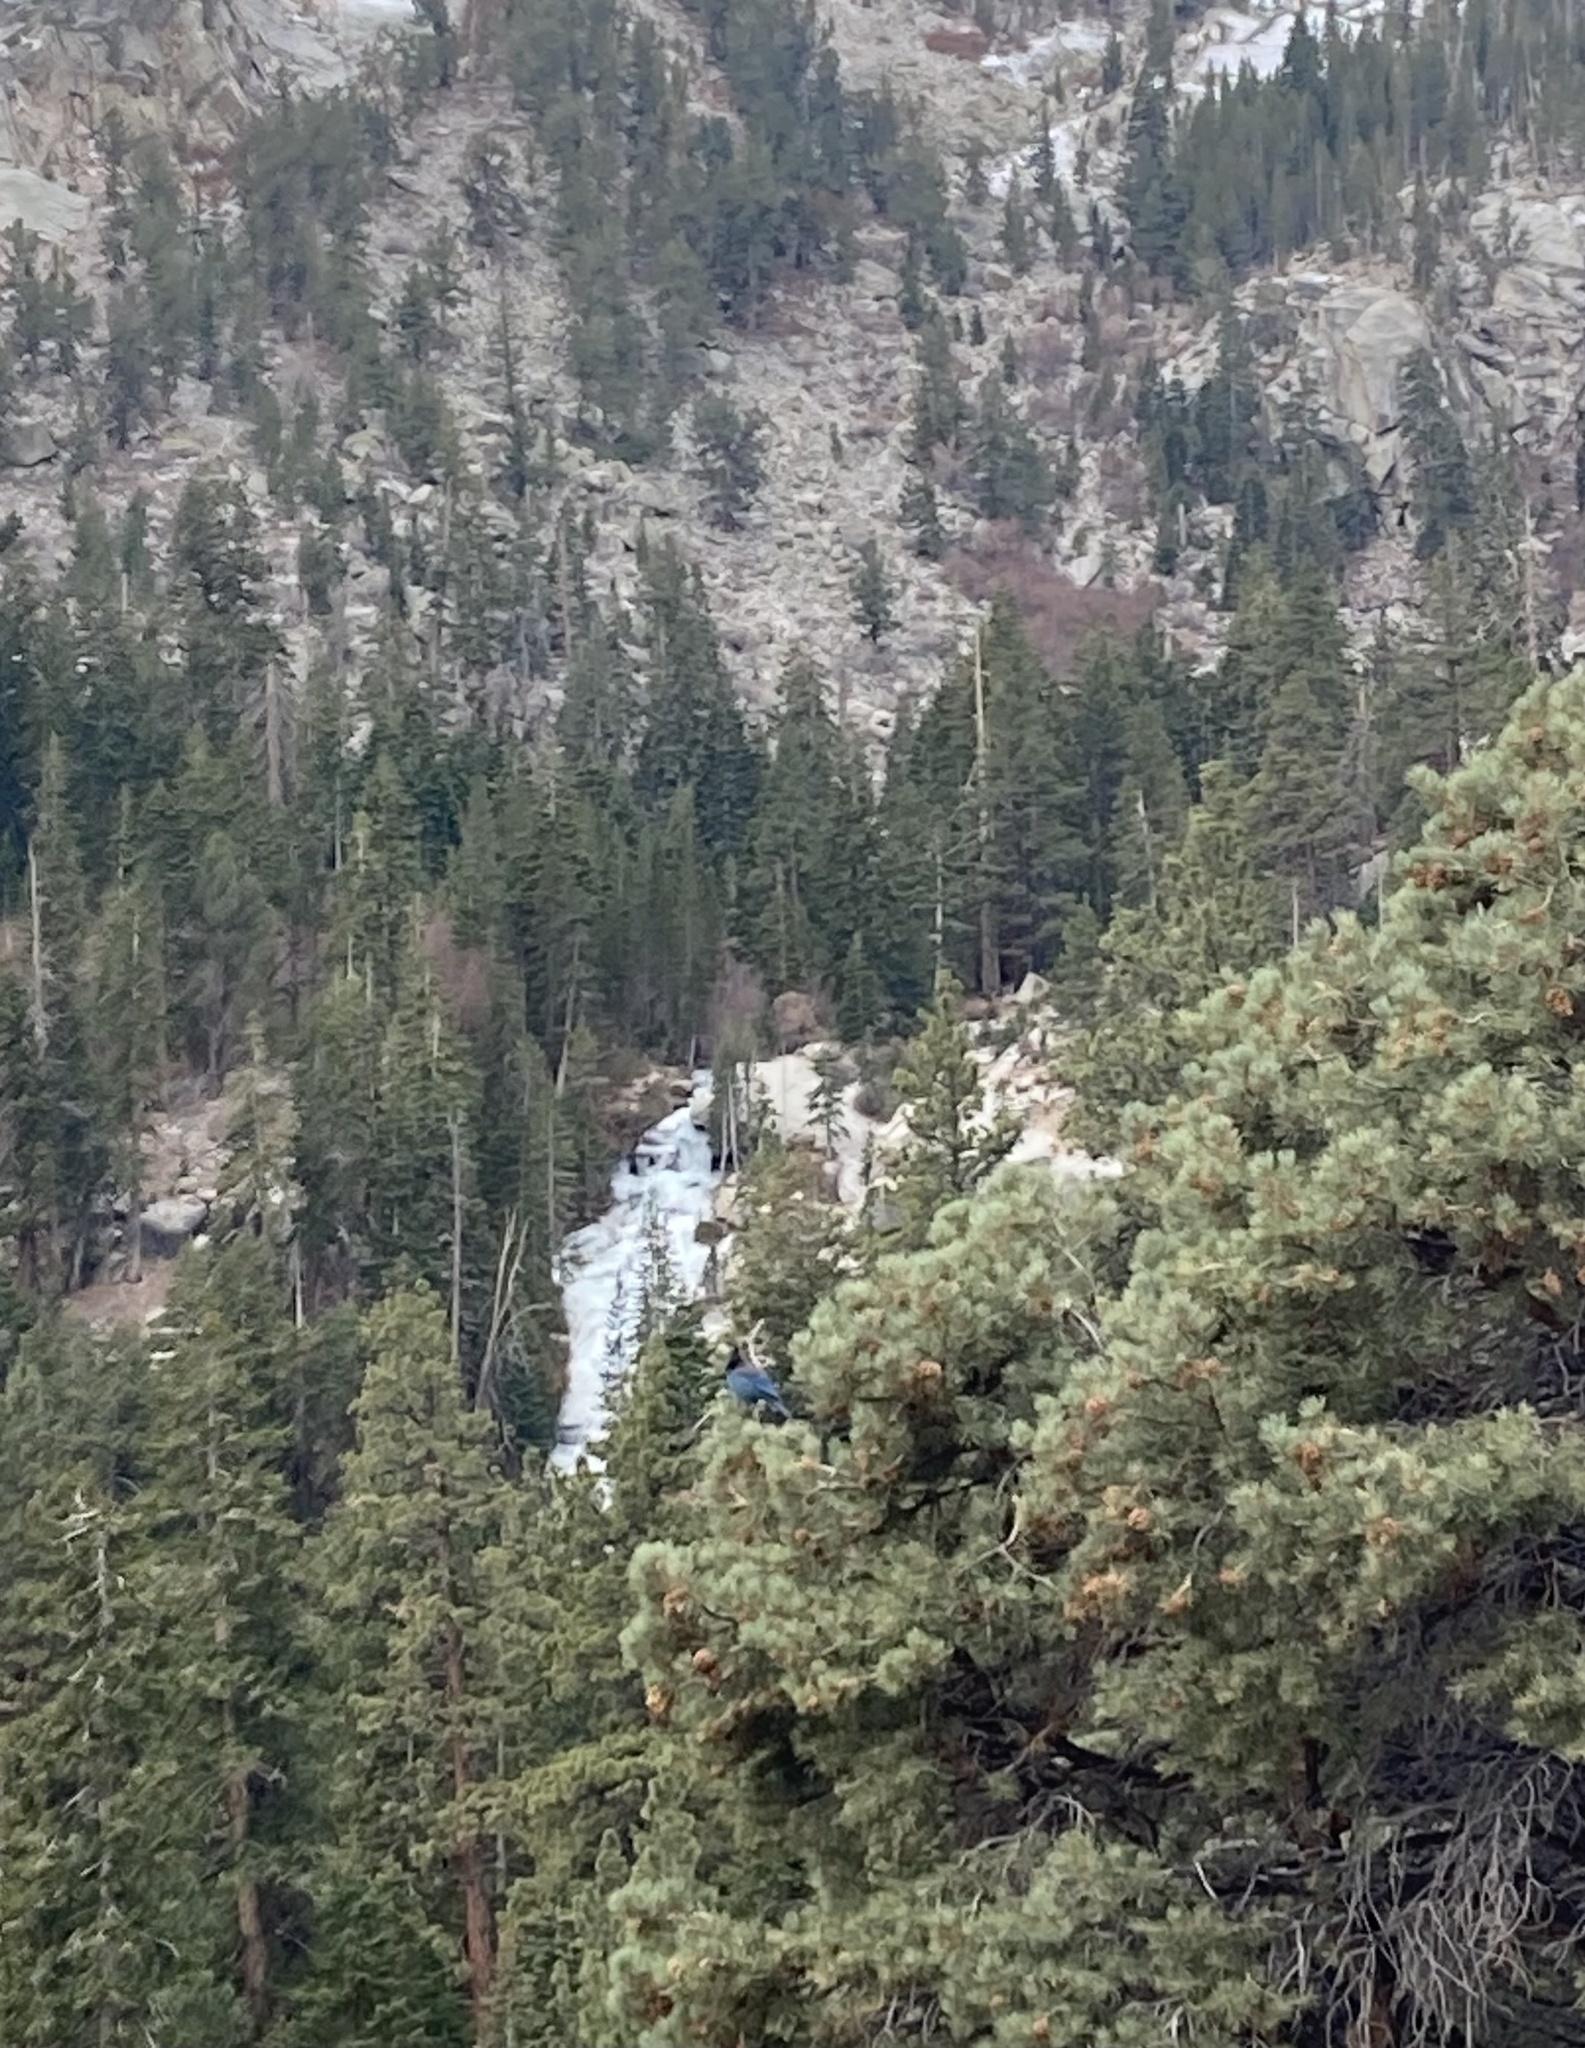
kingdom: Animalia
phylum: Chordata
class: Aves
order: Passeriformes
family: Corvidae
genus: Cyanocitta
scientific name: Cyanocitta stelleri
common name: Steller's jay
